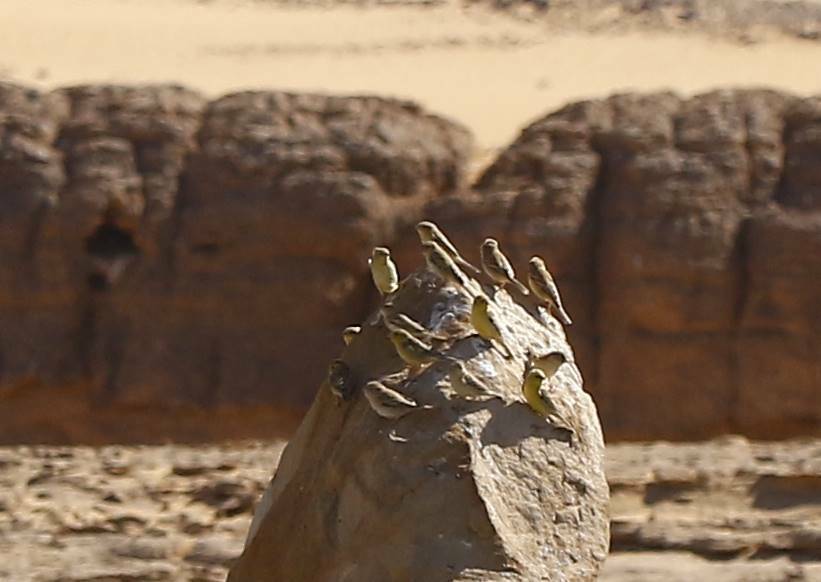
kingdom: Animalia
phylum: Chordata
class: Aves
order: Passeriformes
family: Passeridae
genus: Passer
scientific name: Passer luteus
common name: Sudan golden sparrow
